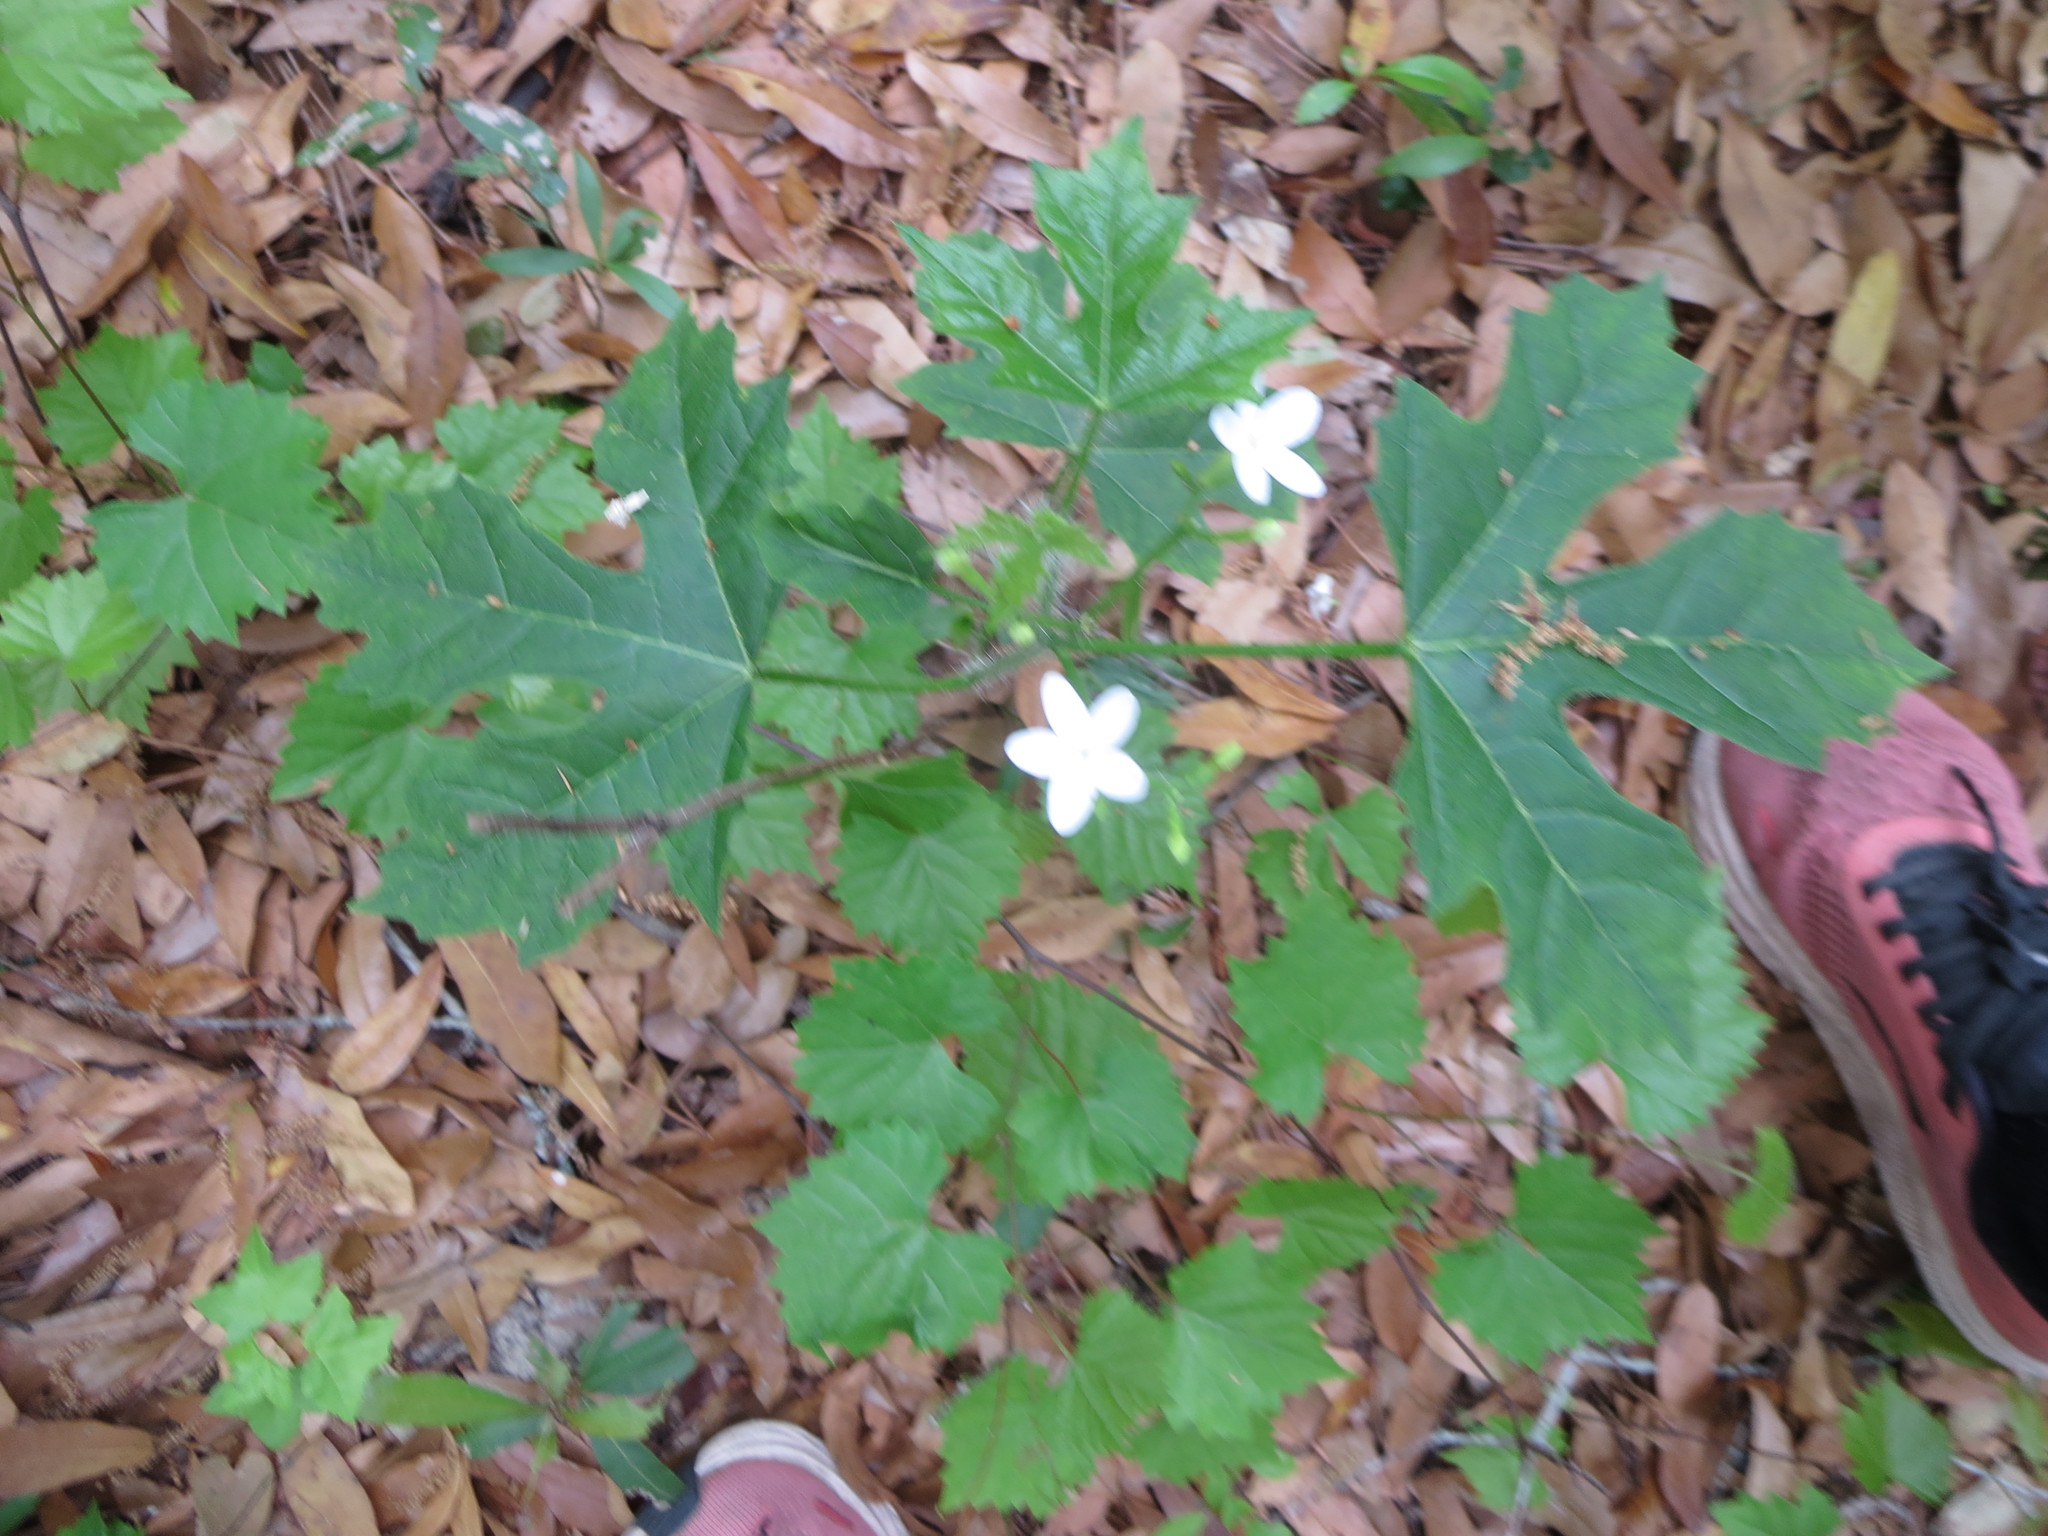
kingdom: Plantae
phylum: Tracheophyta
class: Magnoliopsida
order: Malpighiales
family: Euphorbiaceae
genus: Cnidoscolus
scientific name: Cnidoscolus stimulosus
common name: Bull-nettle
